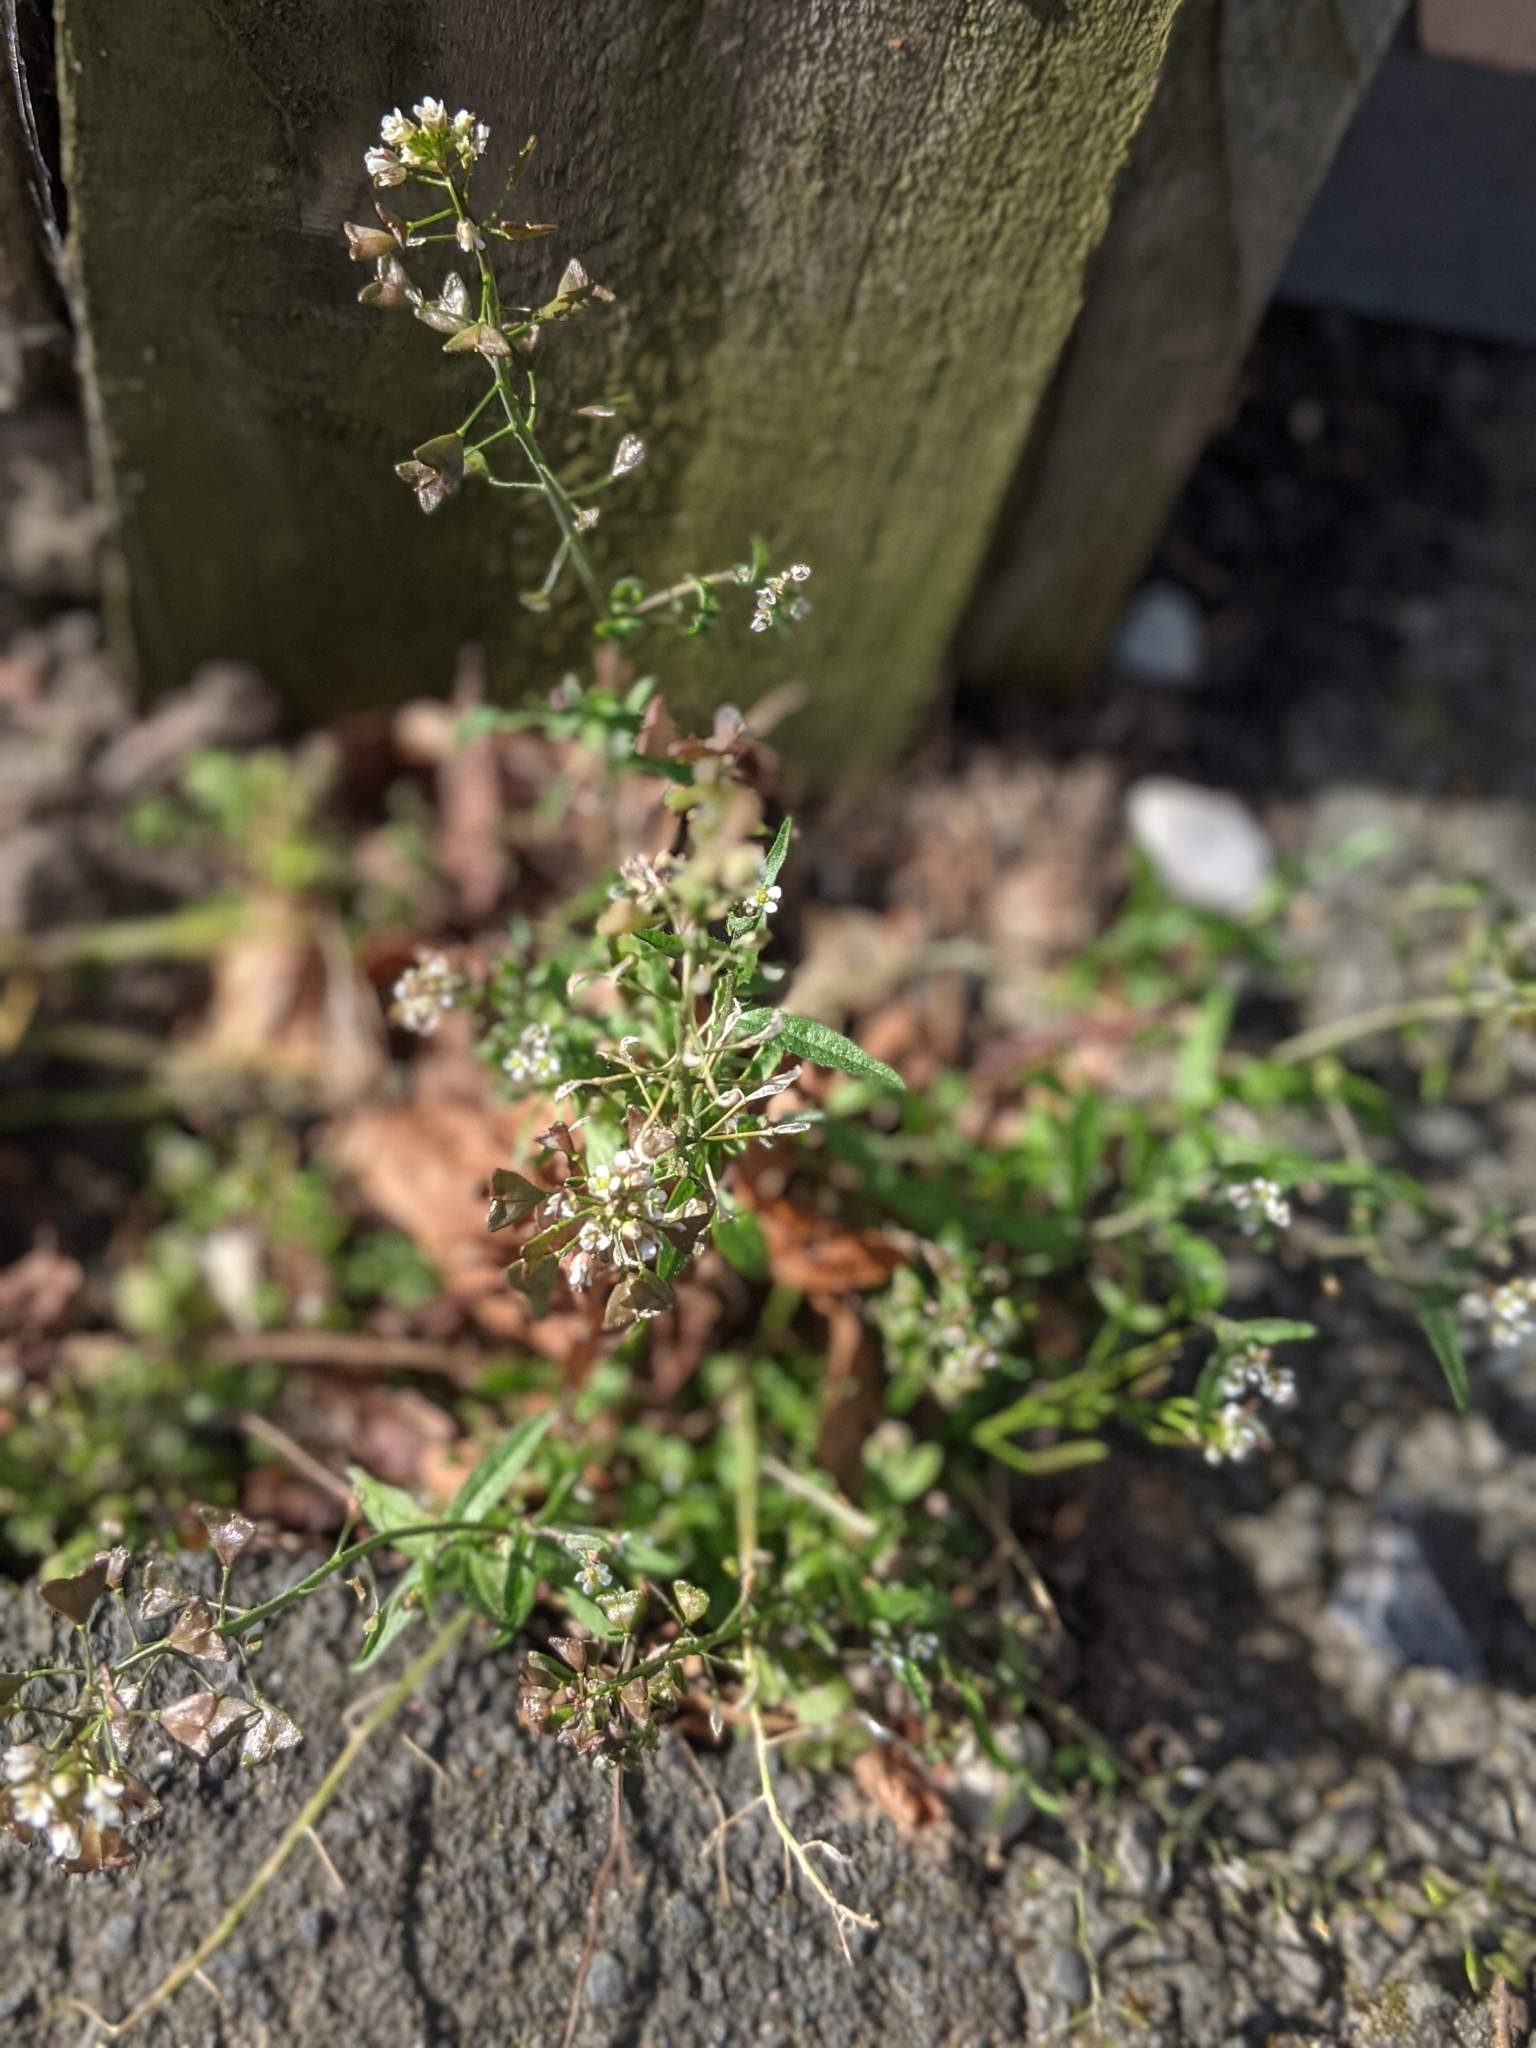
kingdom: Plantae
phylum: Tracheophyta
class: Magnoliopsida
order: Brassicales
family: Brassicaceae
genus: Capsella
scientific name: Capsella bursa-pastoris
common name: Shepherd's purse
